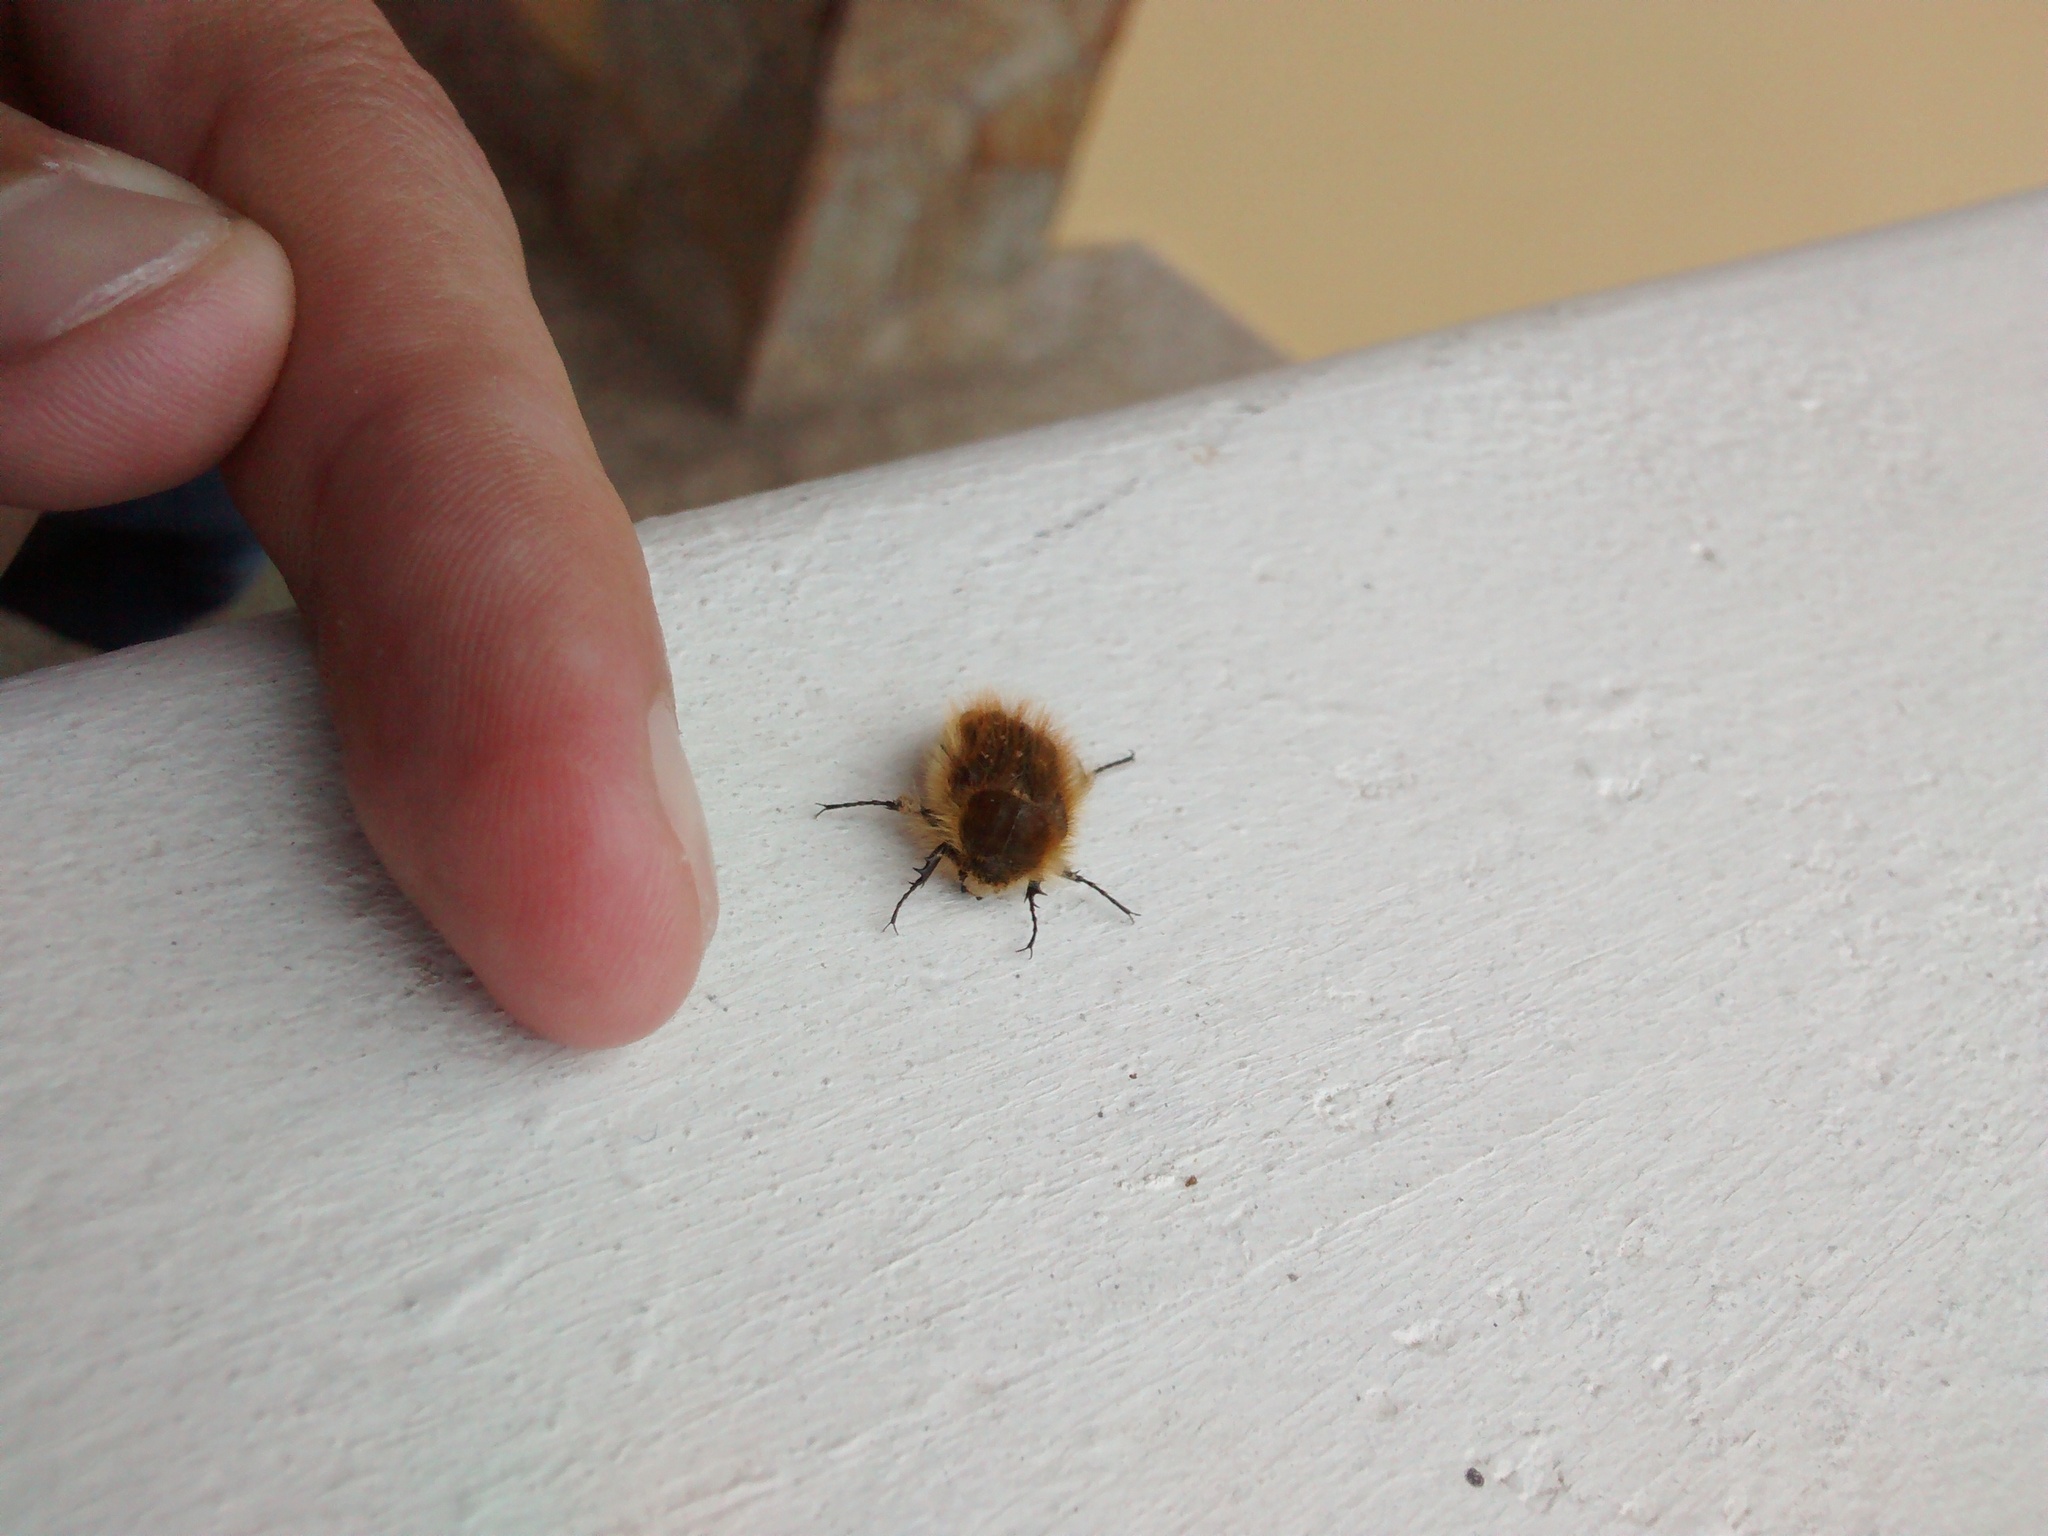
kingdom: Animalia
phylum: Arthropoda
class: Insecta
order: Coleoptera
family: Scarabaeidae
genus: Tropinota
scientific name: Tropinota squalida
